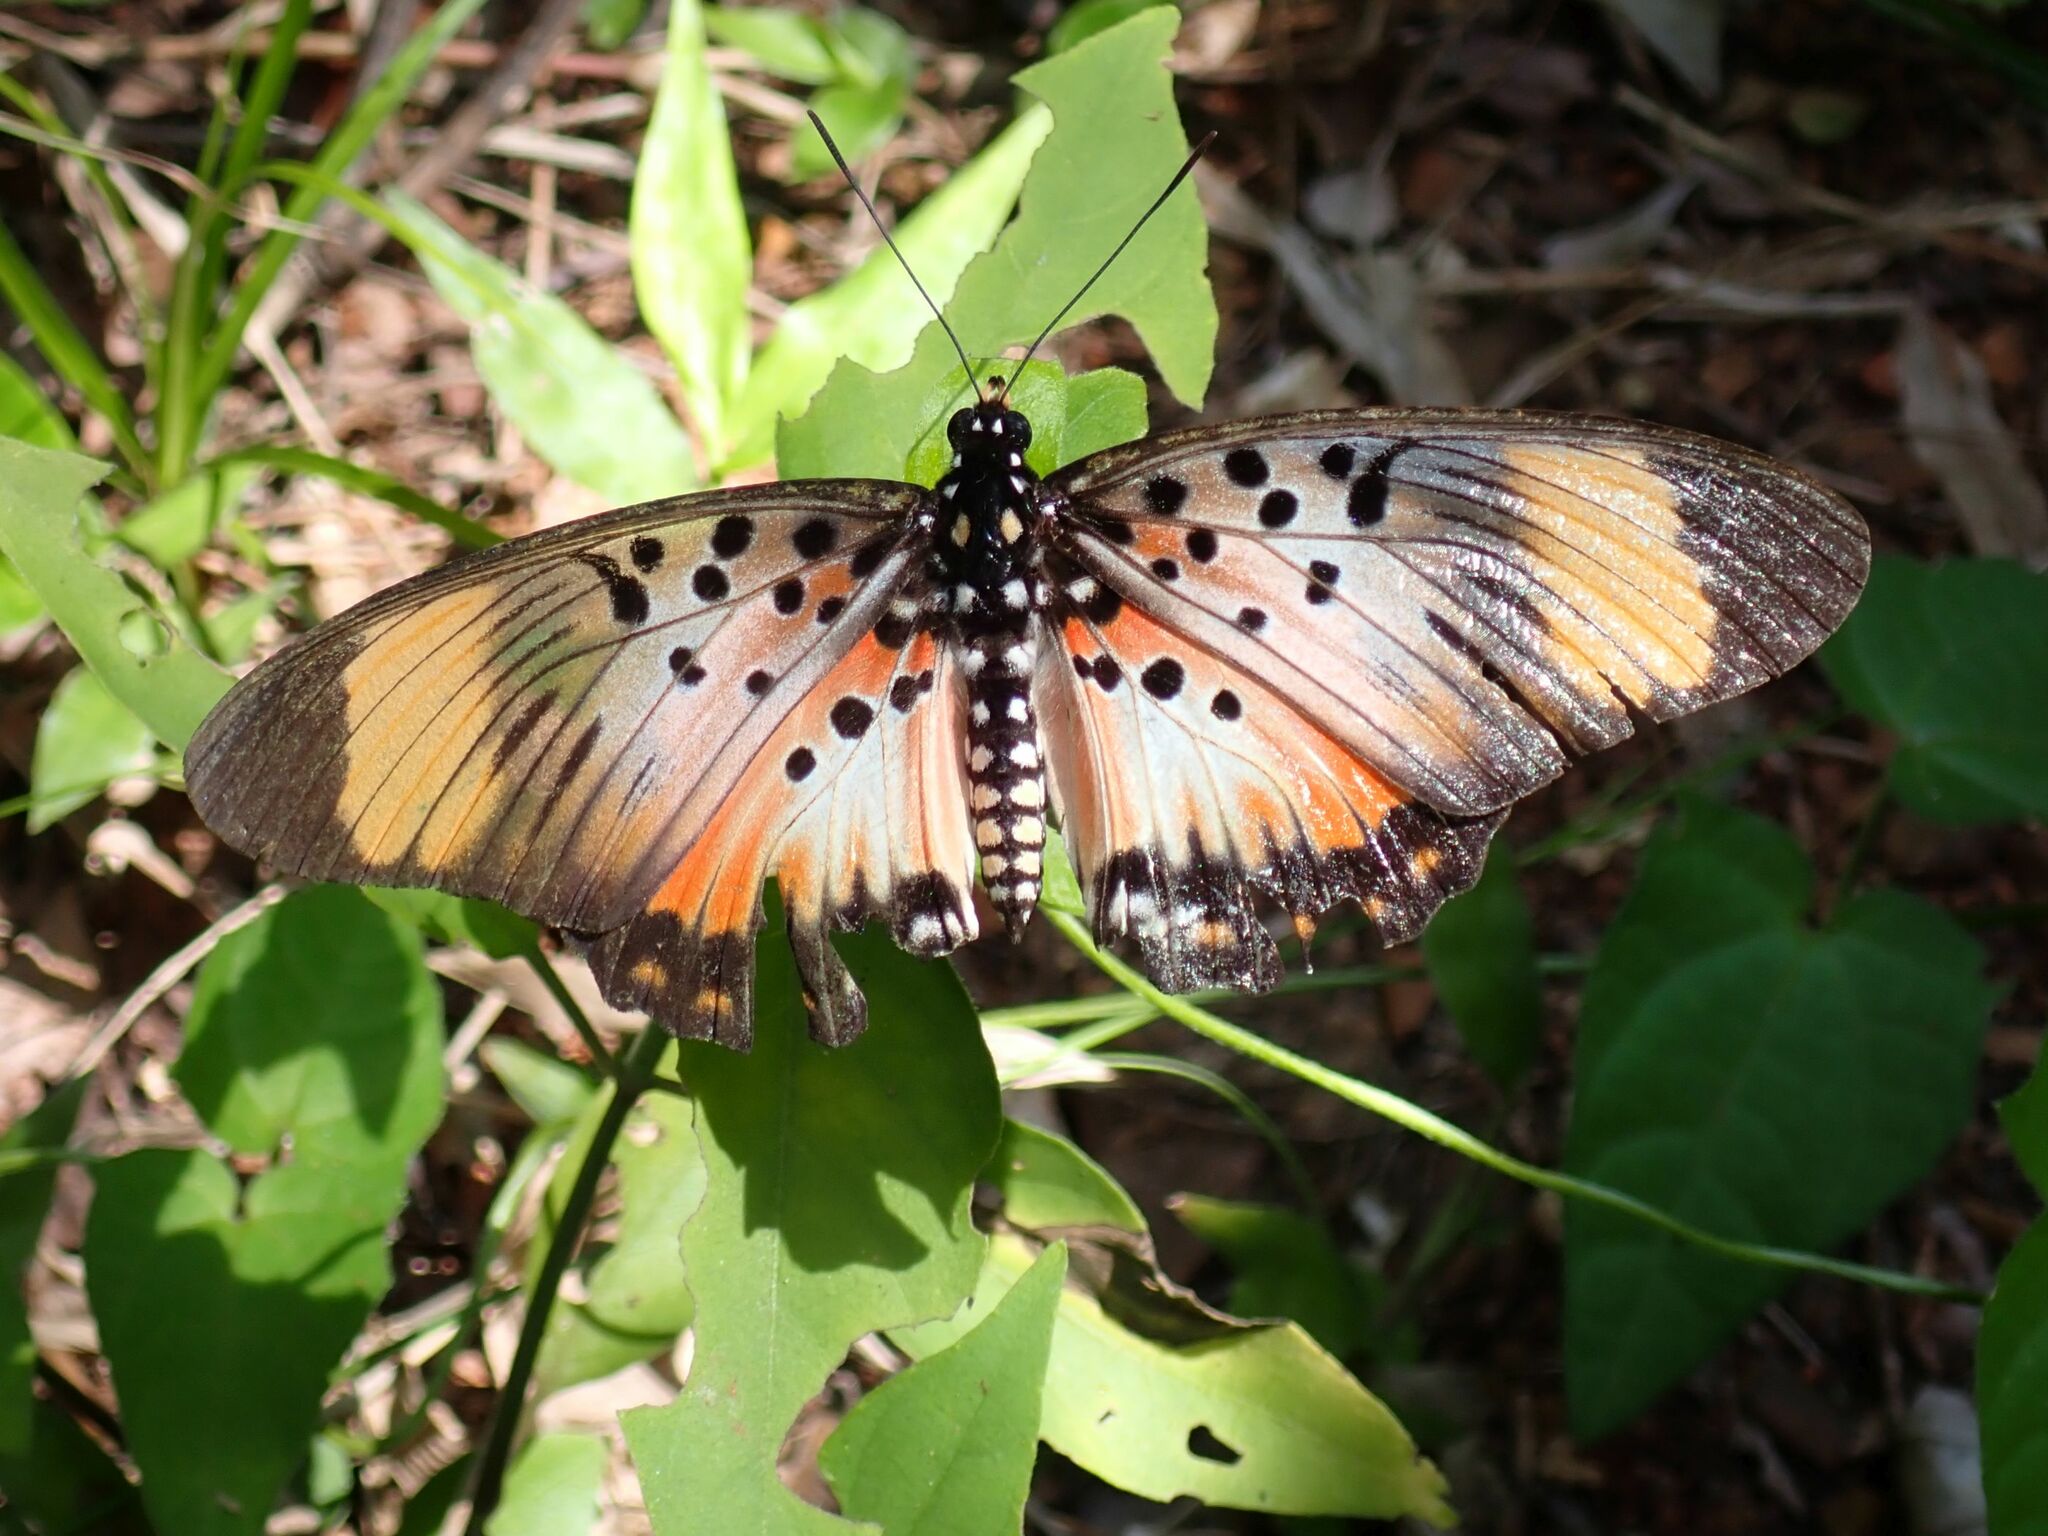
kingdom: Animalia
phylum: Arthropoda
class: Insecta
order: Lepidoptera
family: Nymphalidae
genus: Chloropoea
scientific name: Chloropoea boisduvalii
